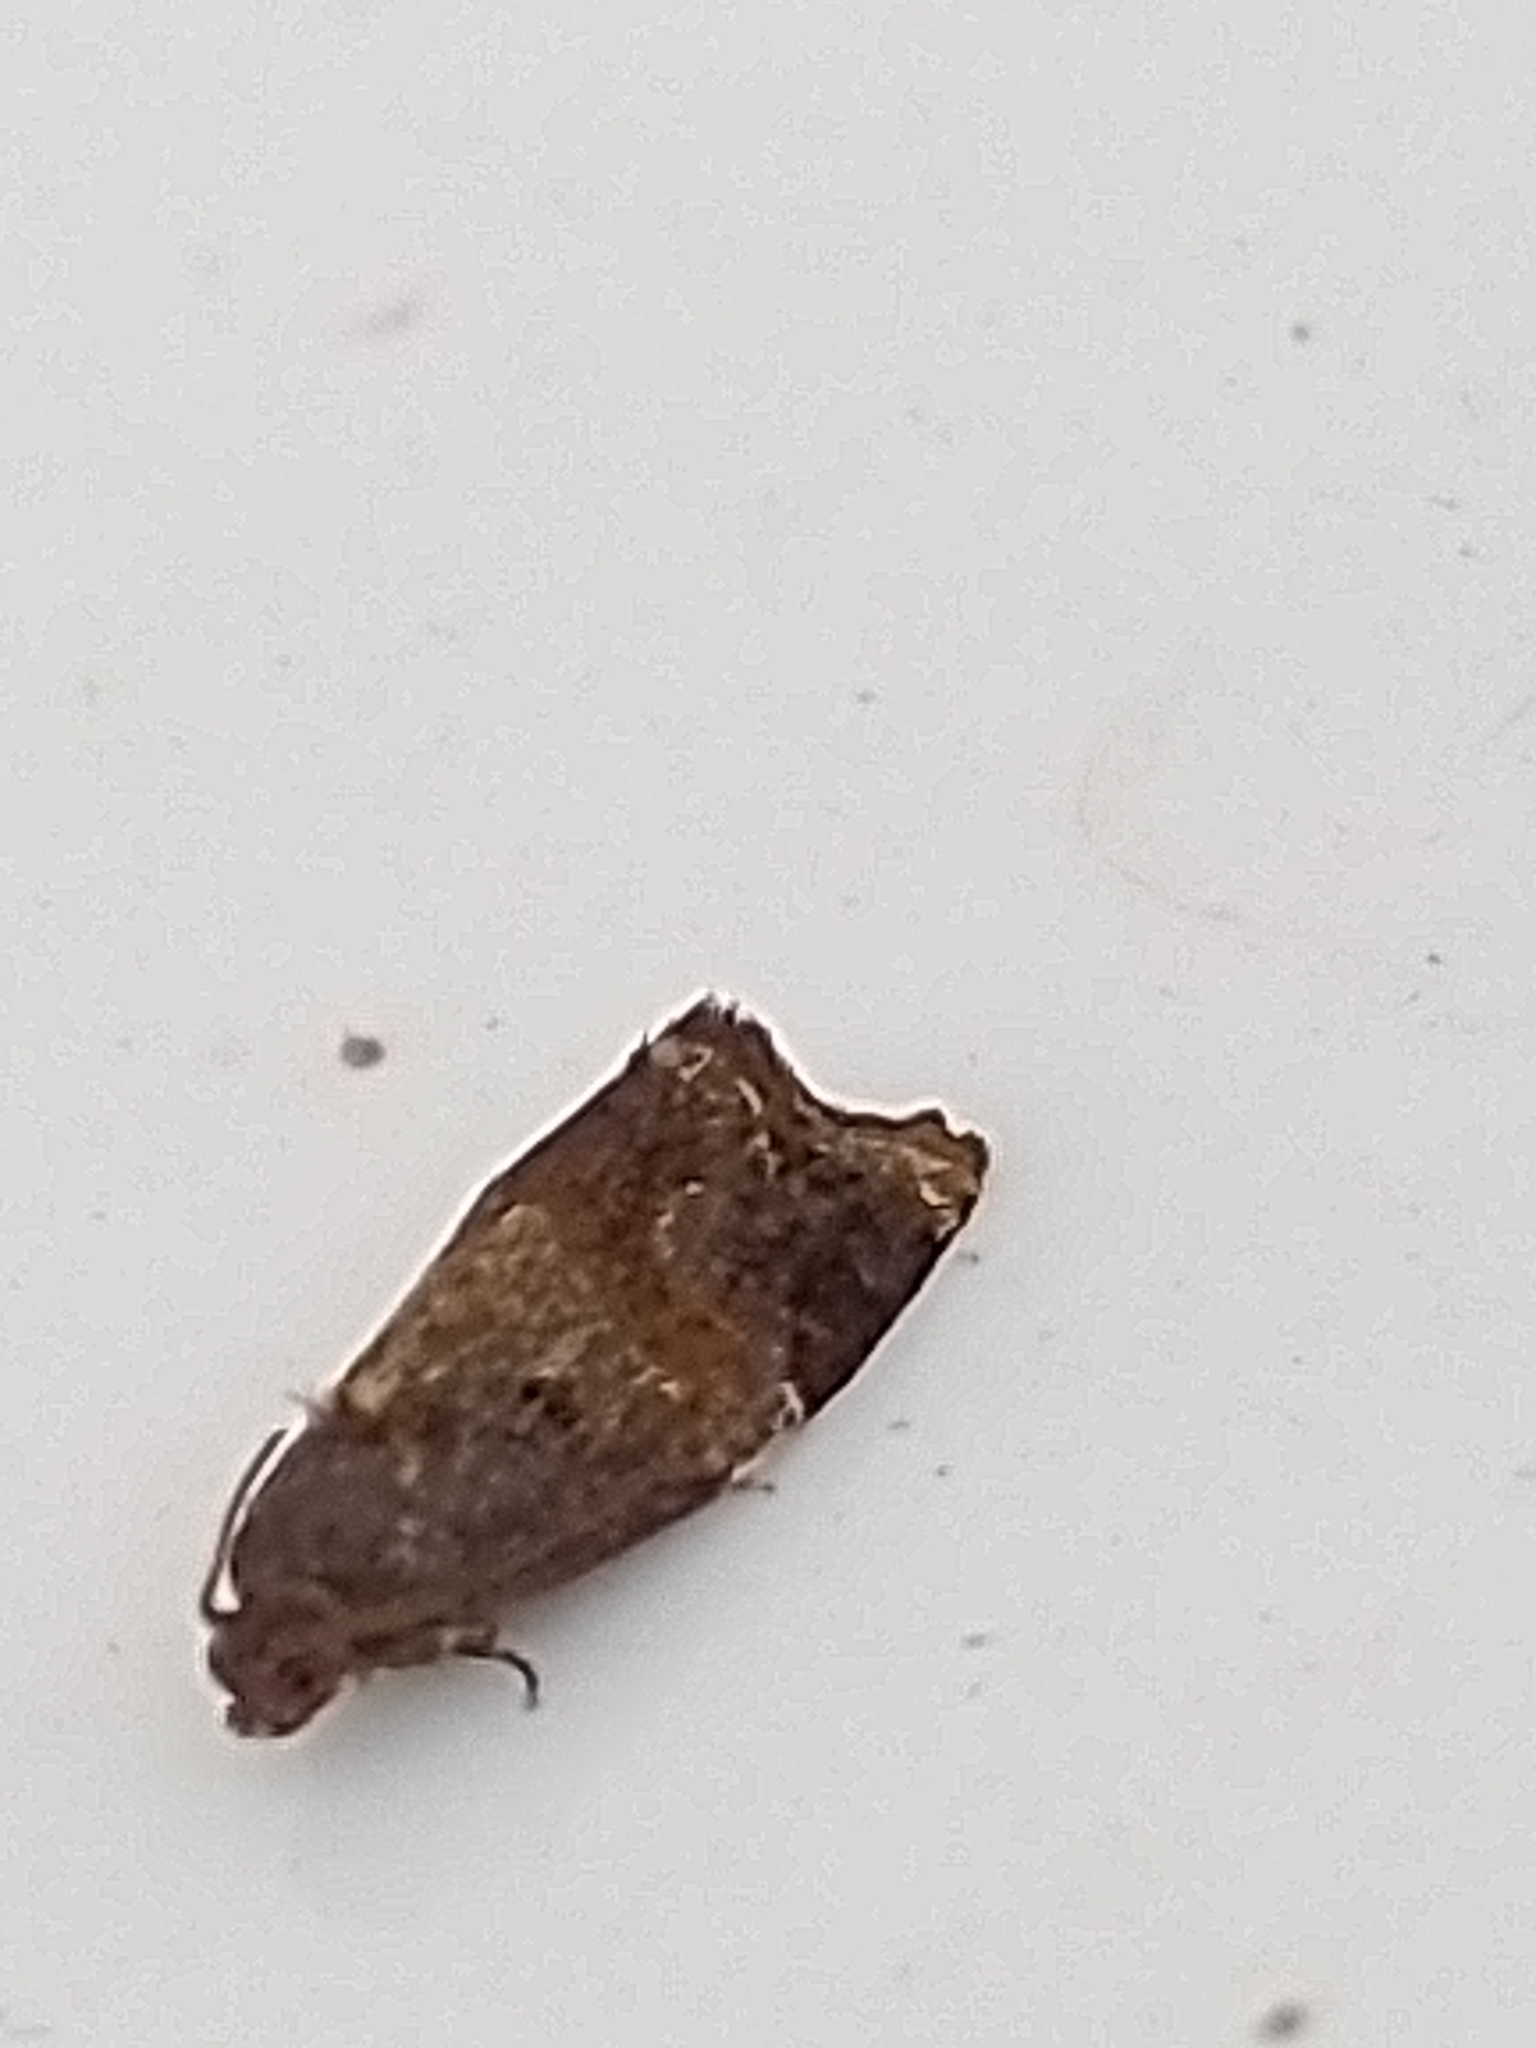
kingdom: Animalia
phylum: Arthropoda
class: Insecta
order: Lepidoptera
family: Tortricidae
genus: Ditula
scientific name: Ditula angustiorana
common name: Red-barred tortrix
